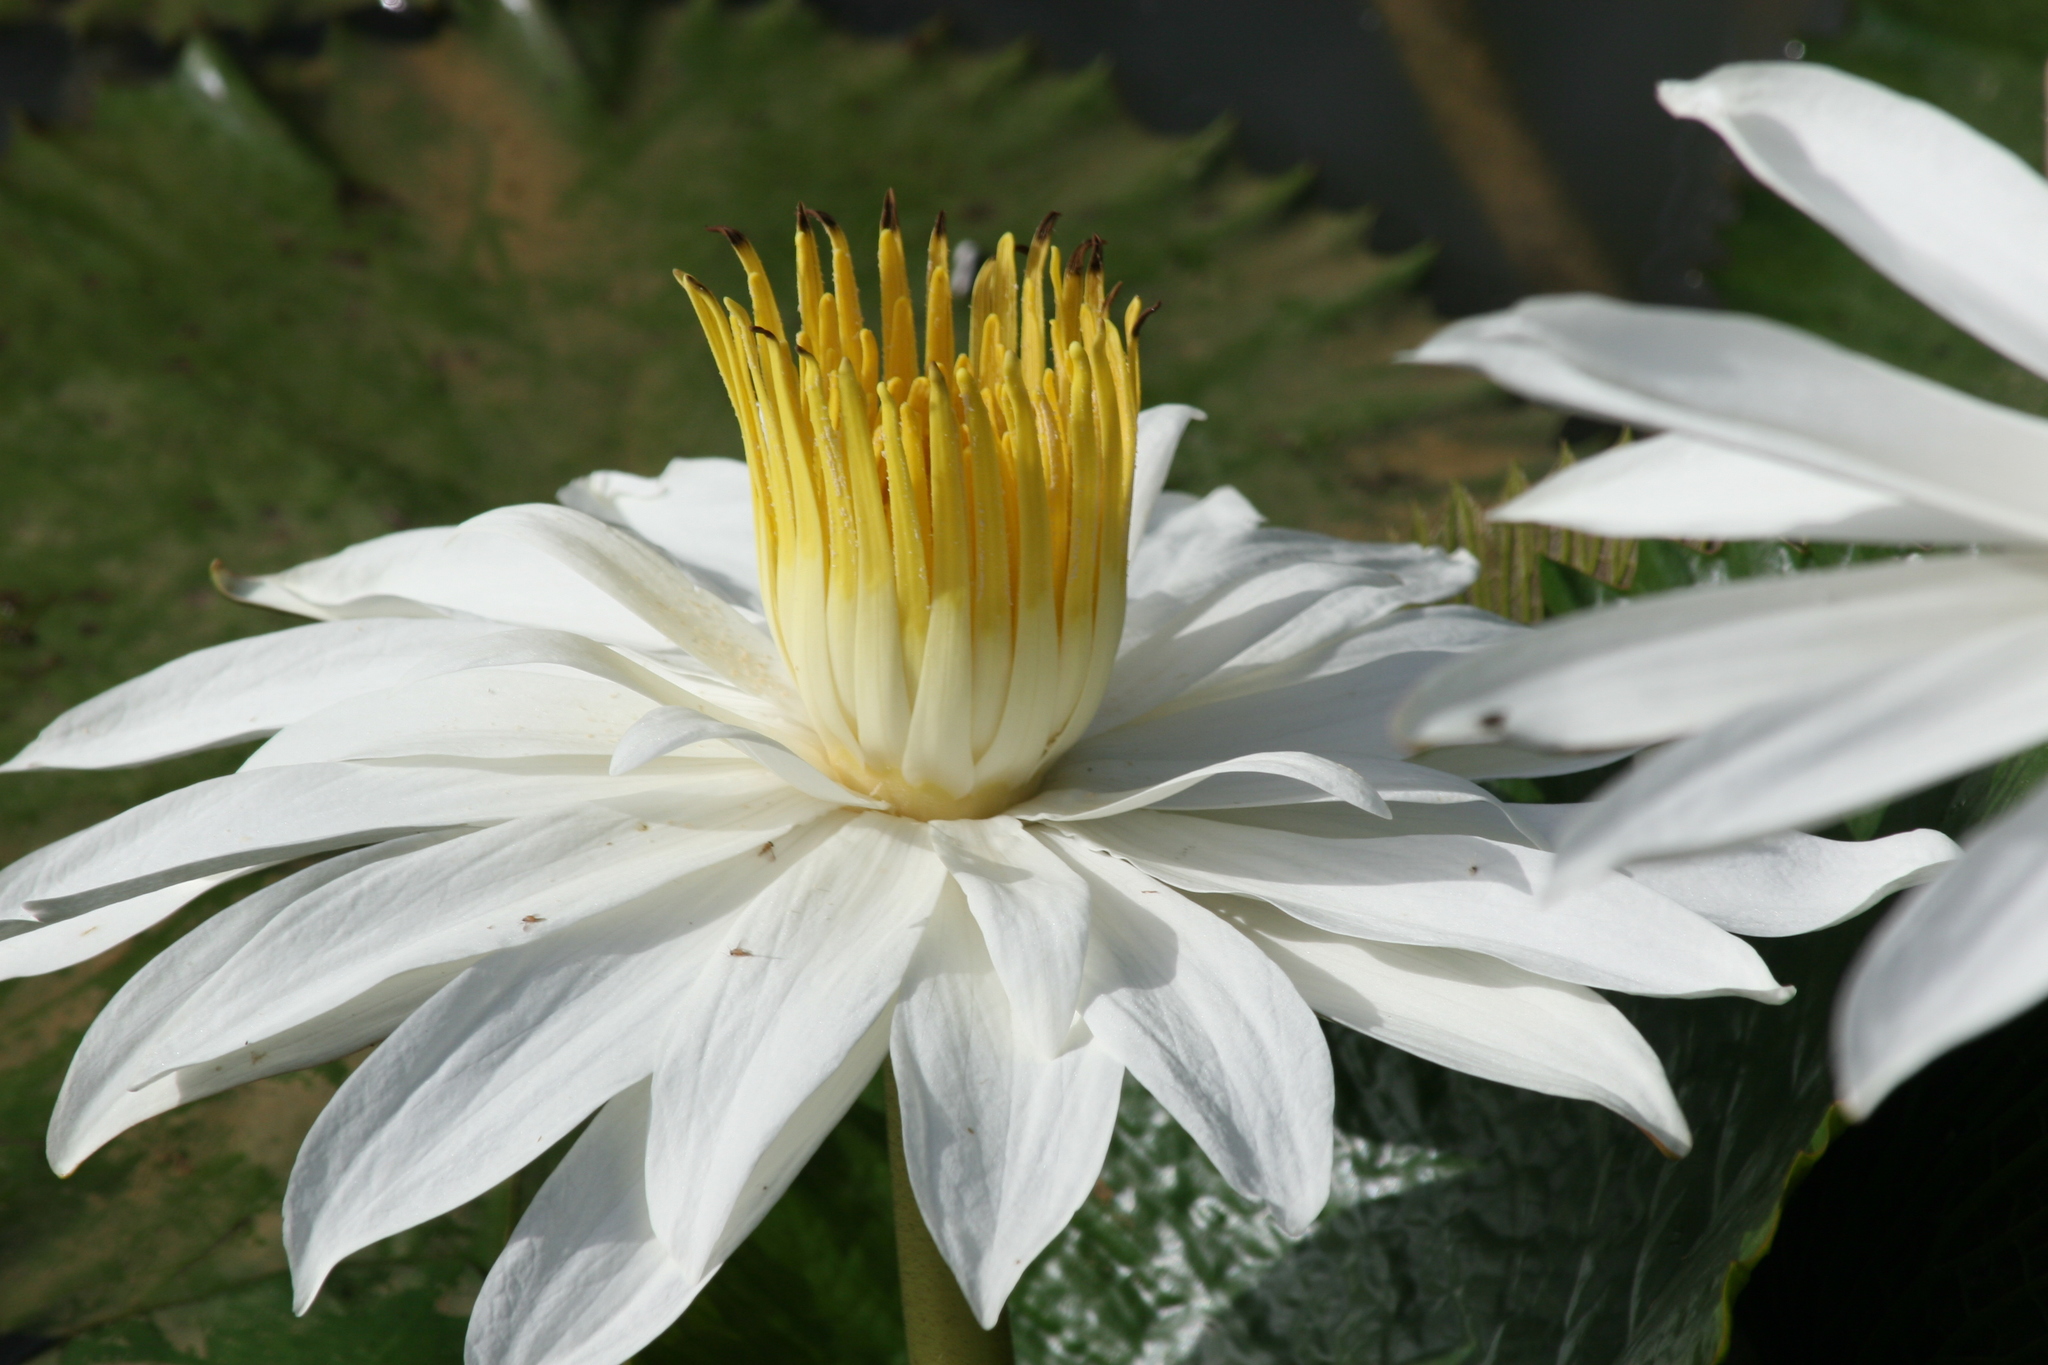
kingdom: Plantae
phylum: Tracheophyta
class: Magnoliopsida
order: Nymphaeales
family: Nymphaeaceae
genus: Nymphaea
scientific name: Nymphaea lotus
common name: White egyptian lotus
